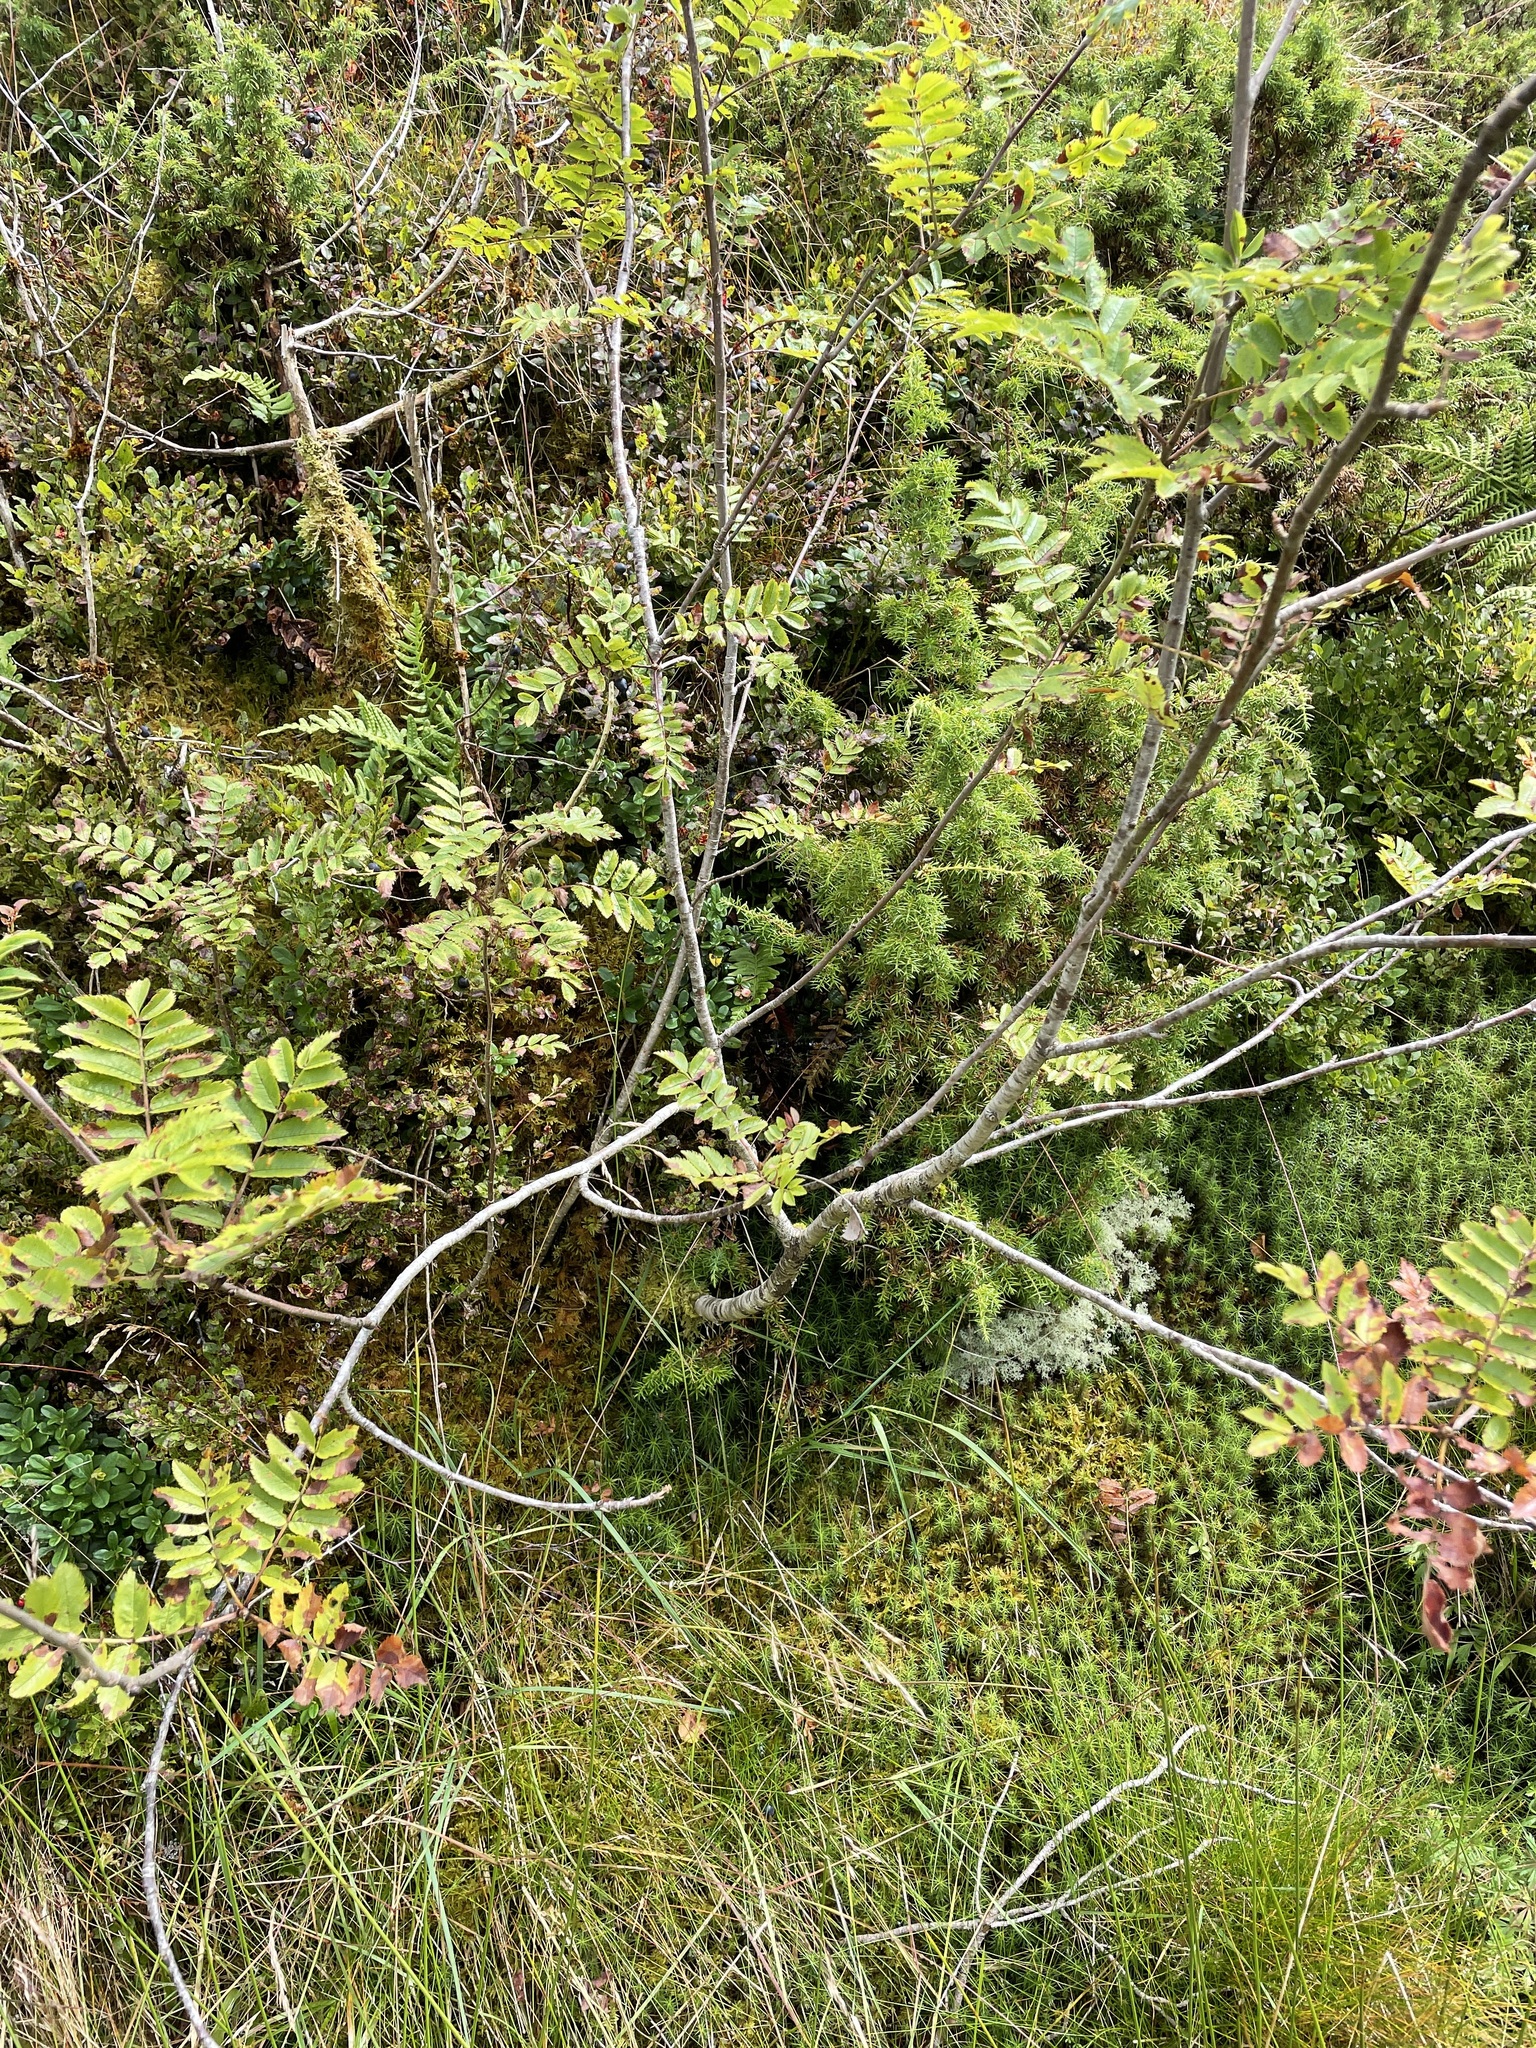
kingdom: Plantae
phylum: Tracheophyta
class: Magnoliopsida
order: Rosales
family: Rosaceae
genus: Sorbus
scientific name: Sorbus aucuparia
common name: Rowan
